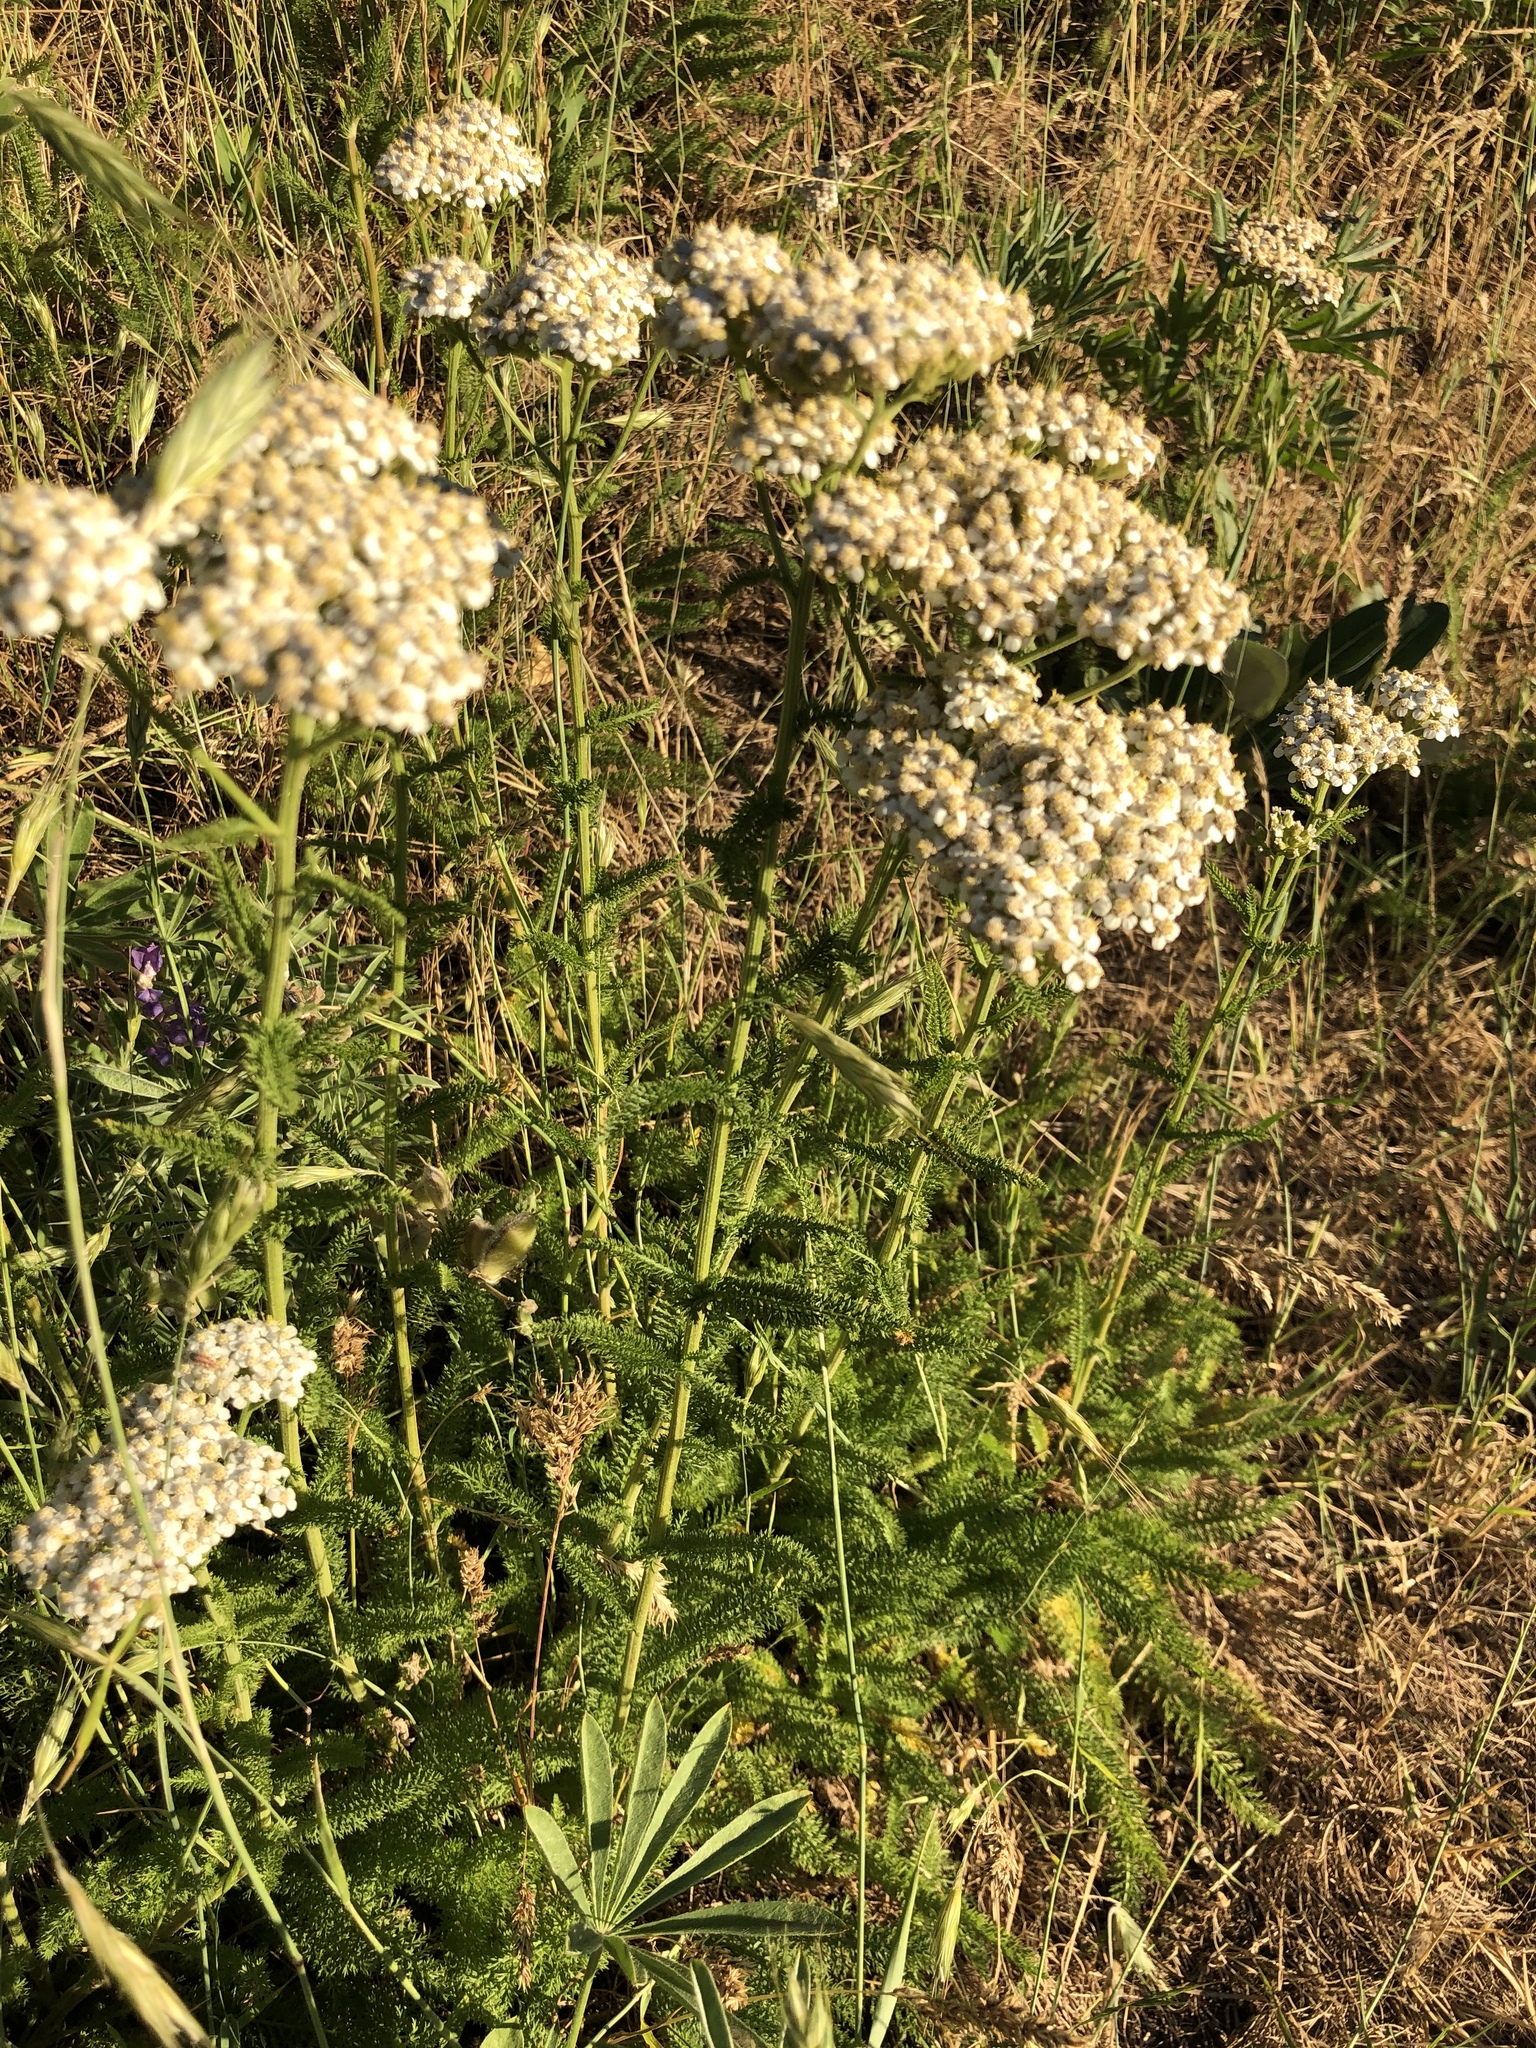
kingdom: Plantae
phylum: Tracheophyta
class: Magnoliopsida
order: Asterales
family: Asteraceae
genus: Achillea
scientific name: Achillea millefolium
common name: Yarrow
